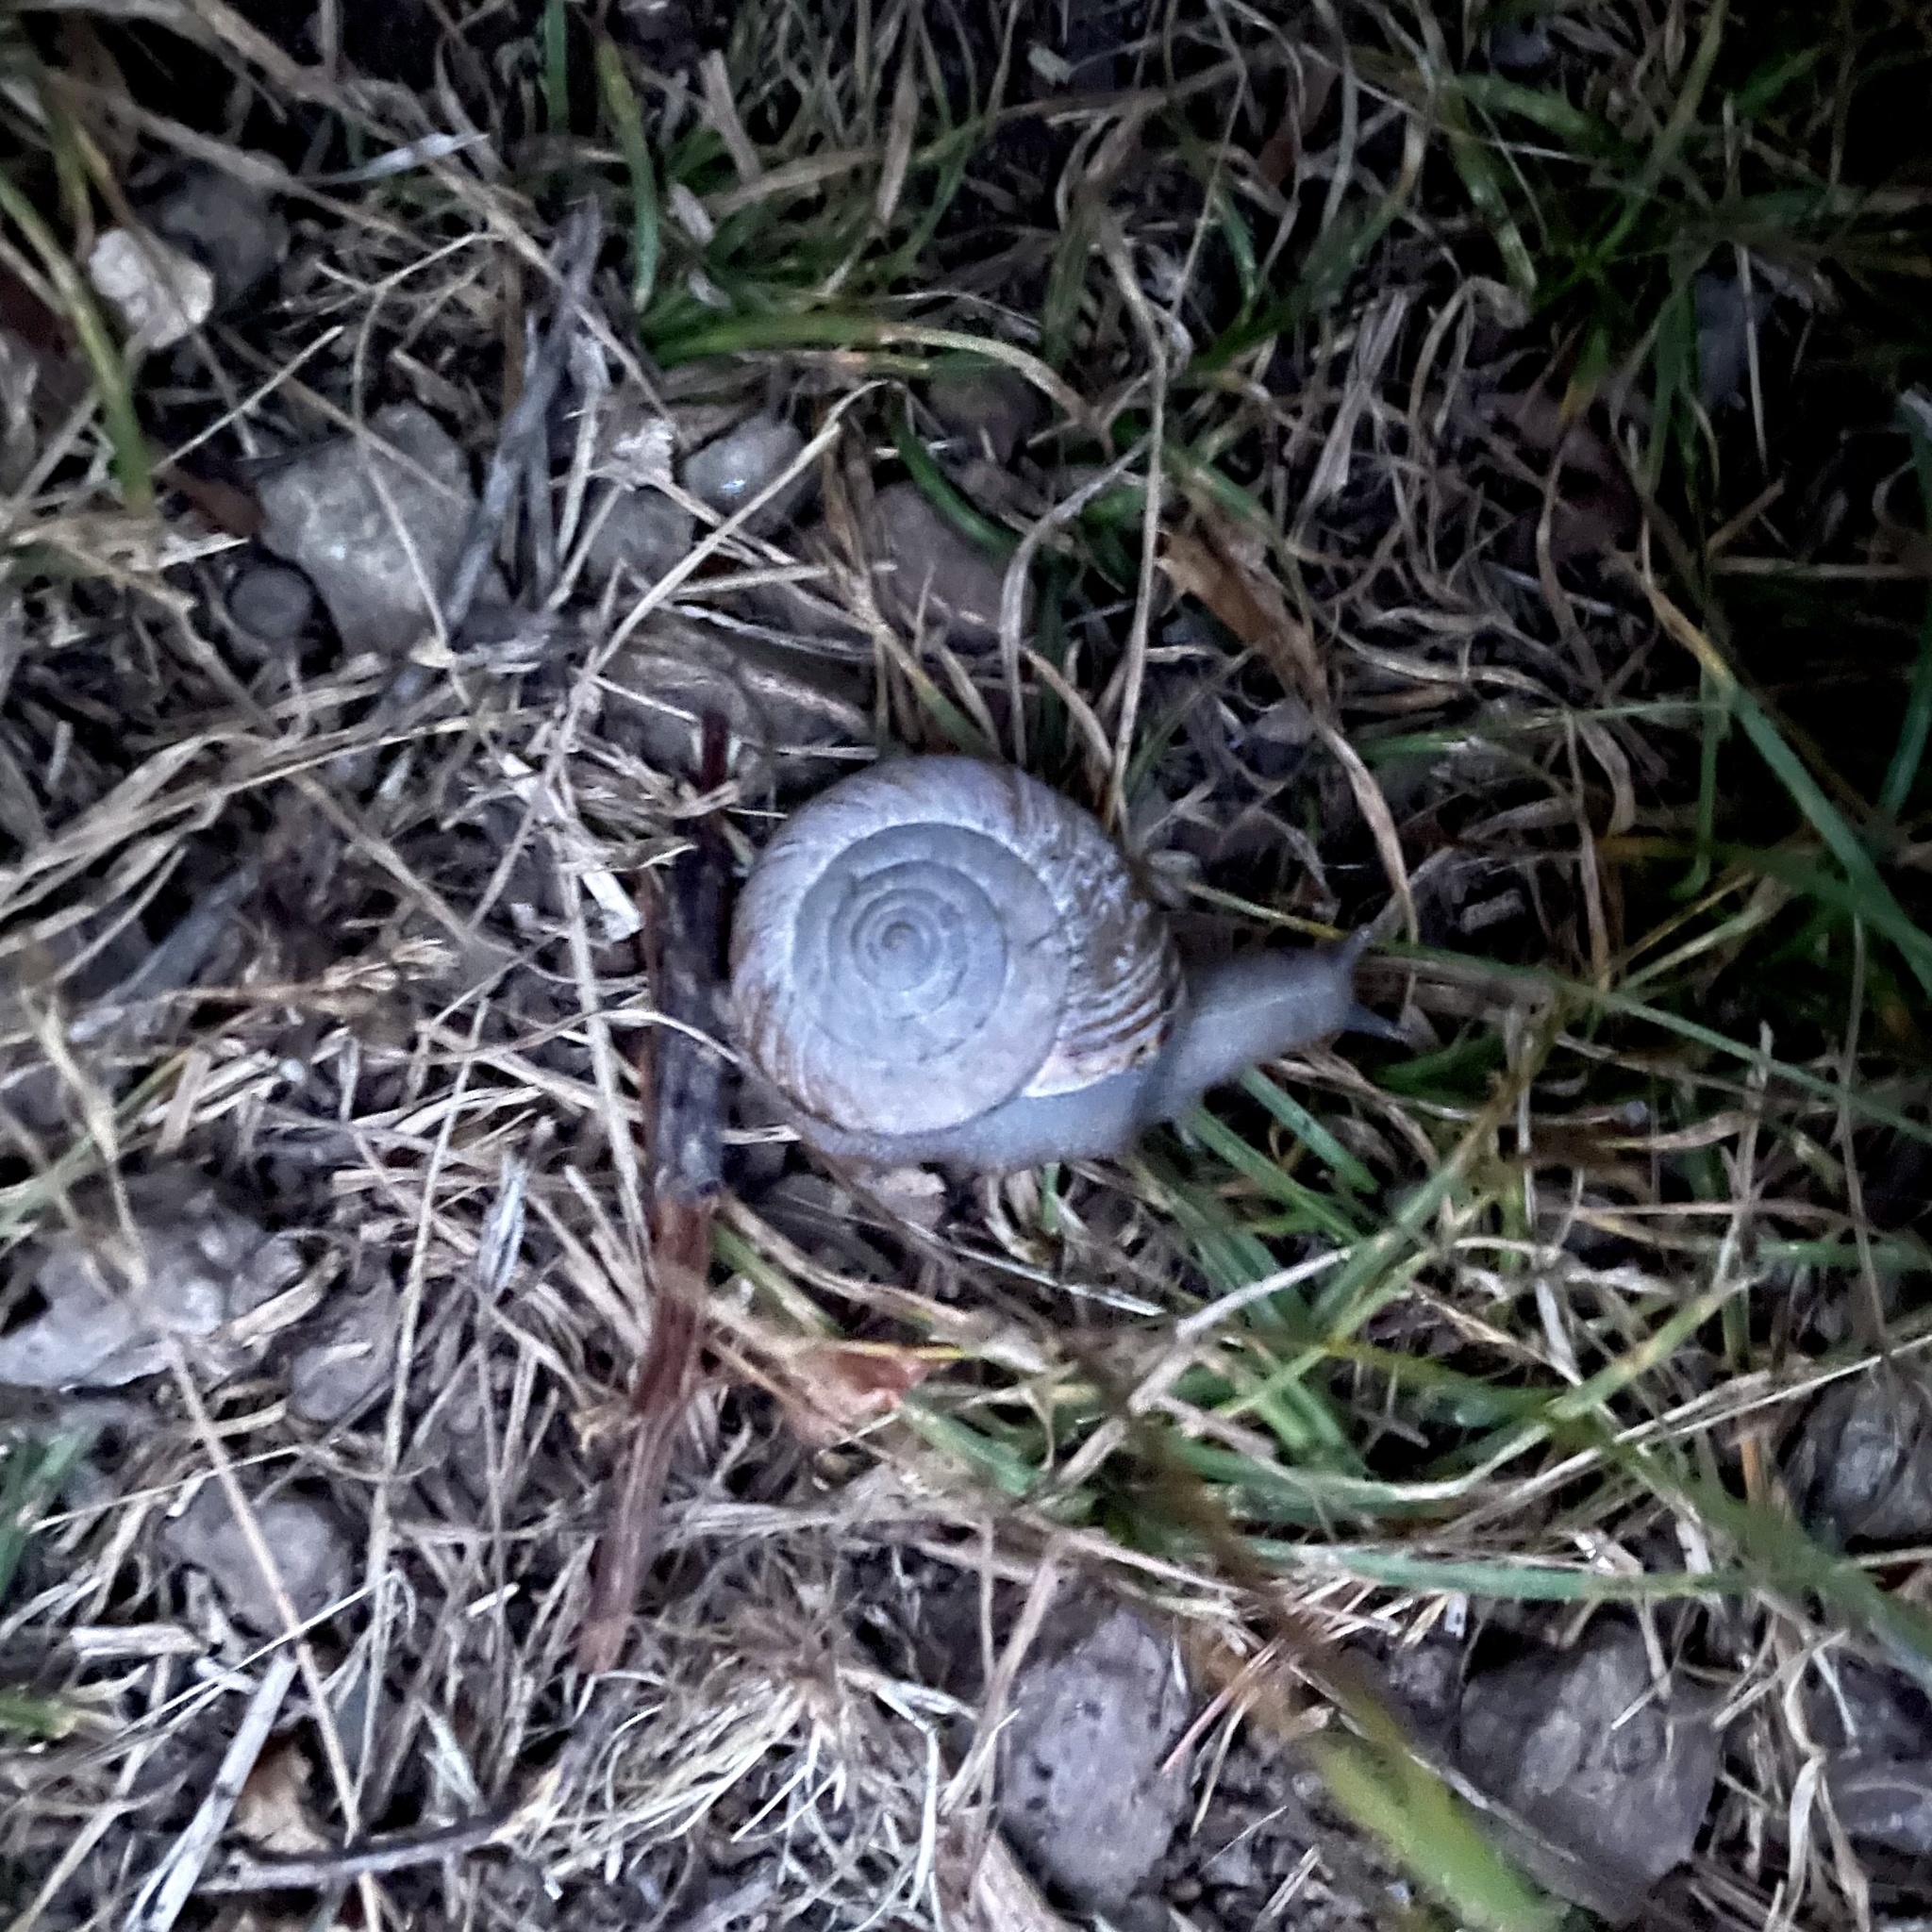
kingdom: Animalia
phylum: Mollusca
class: Gastropoda
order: Stylommatophora
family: Xanthonychidae
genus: Helminthoglypta
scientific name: Helminthoglypta arrosa
